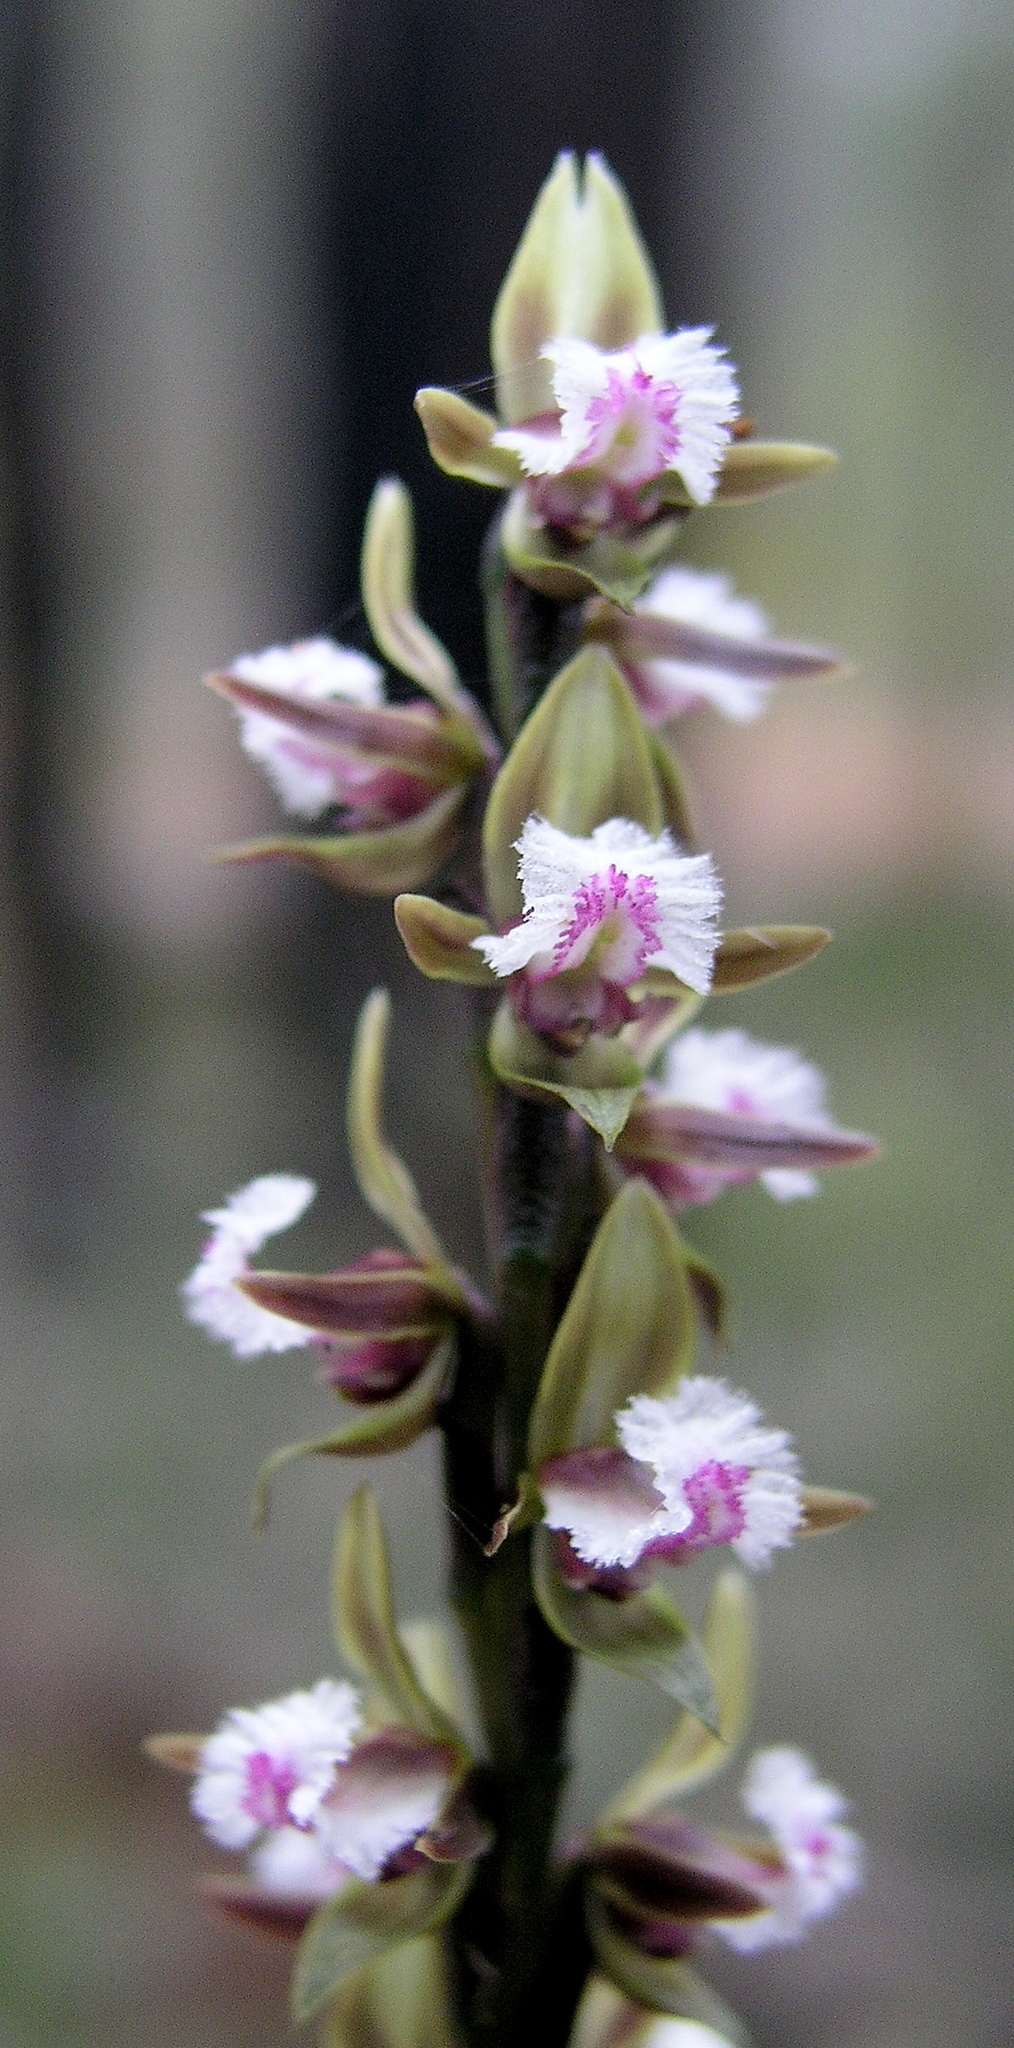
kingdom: Plantae
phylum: Tracheophyta
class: Liliopsida
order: Asparagales
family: Orchidaceae
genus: Prasophyllum
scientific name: Prasophyllum fimbria
